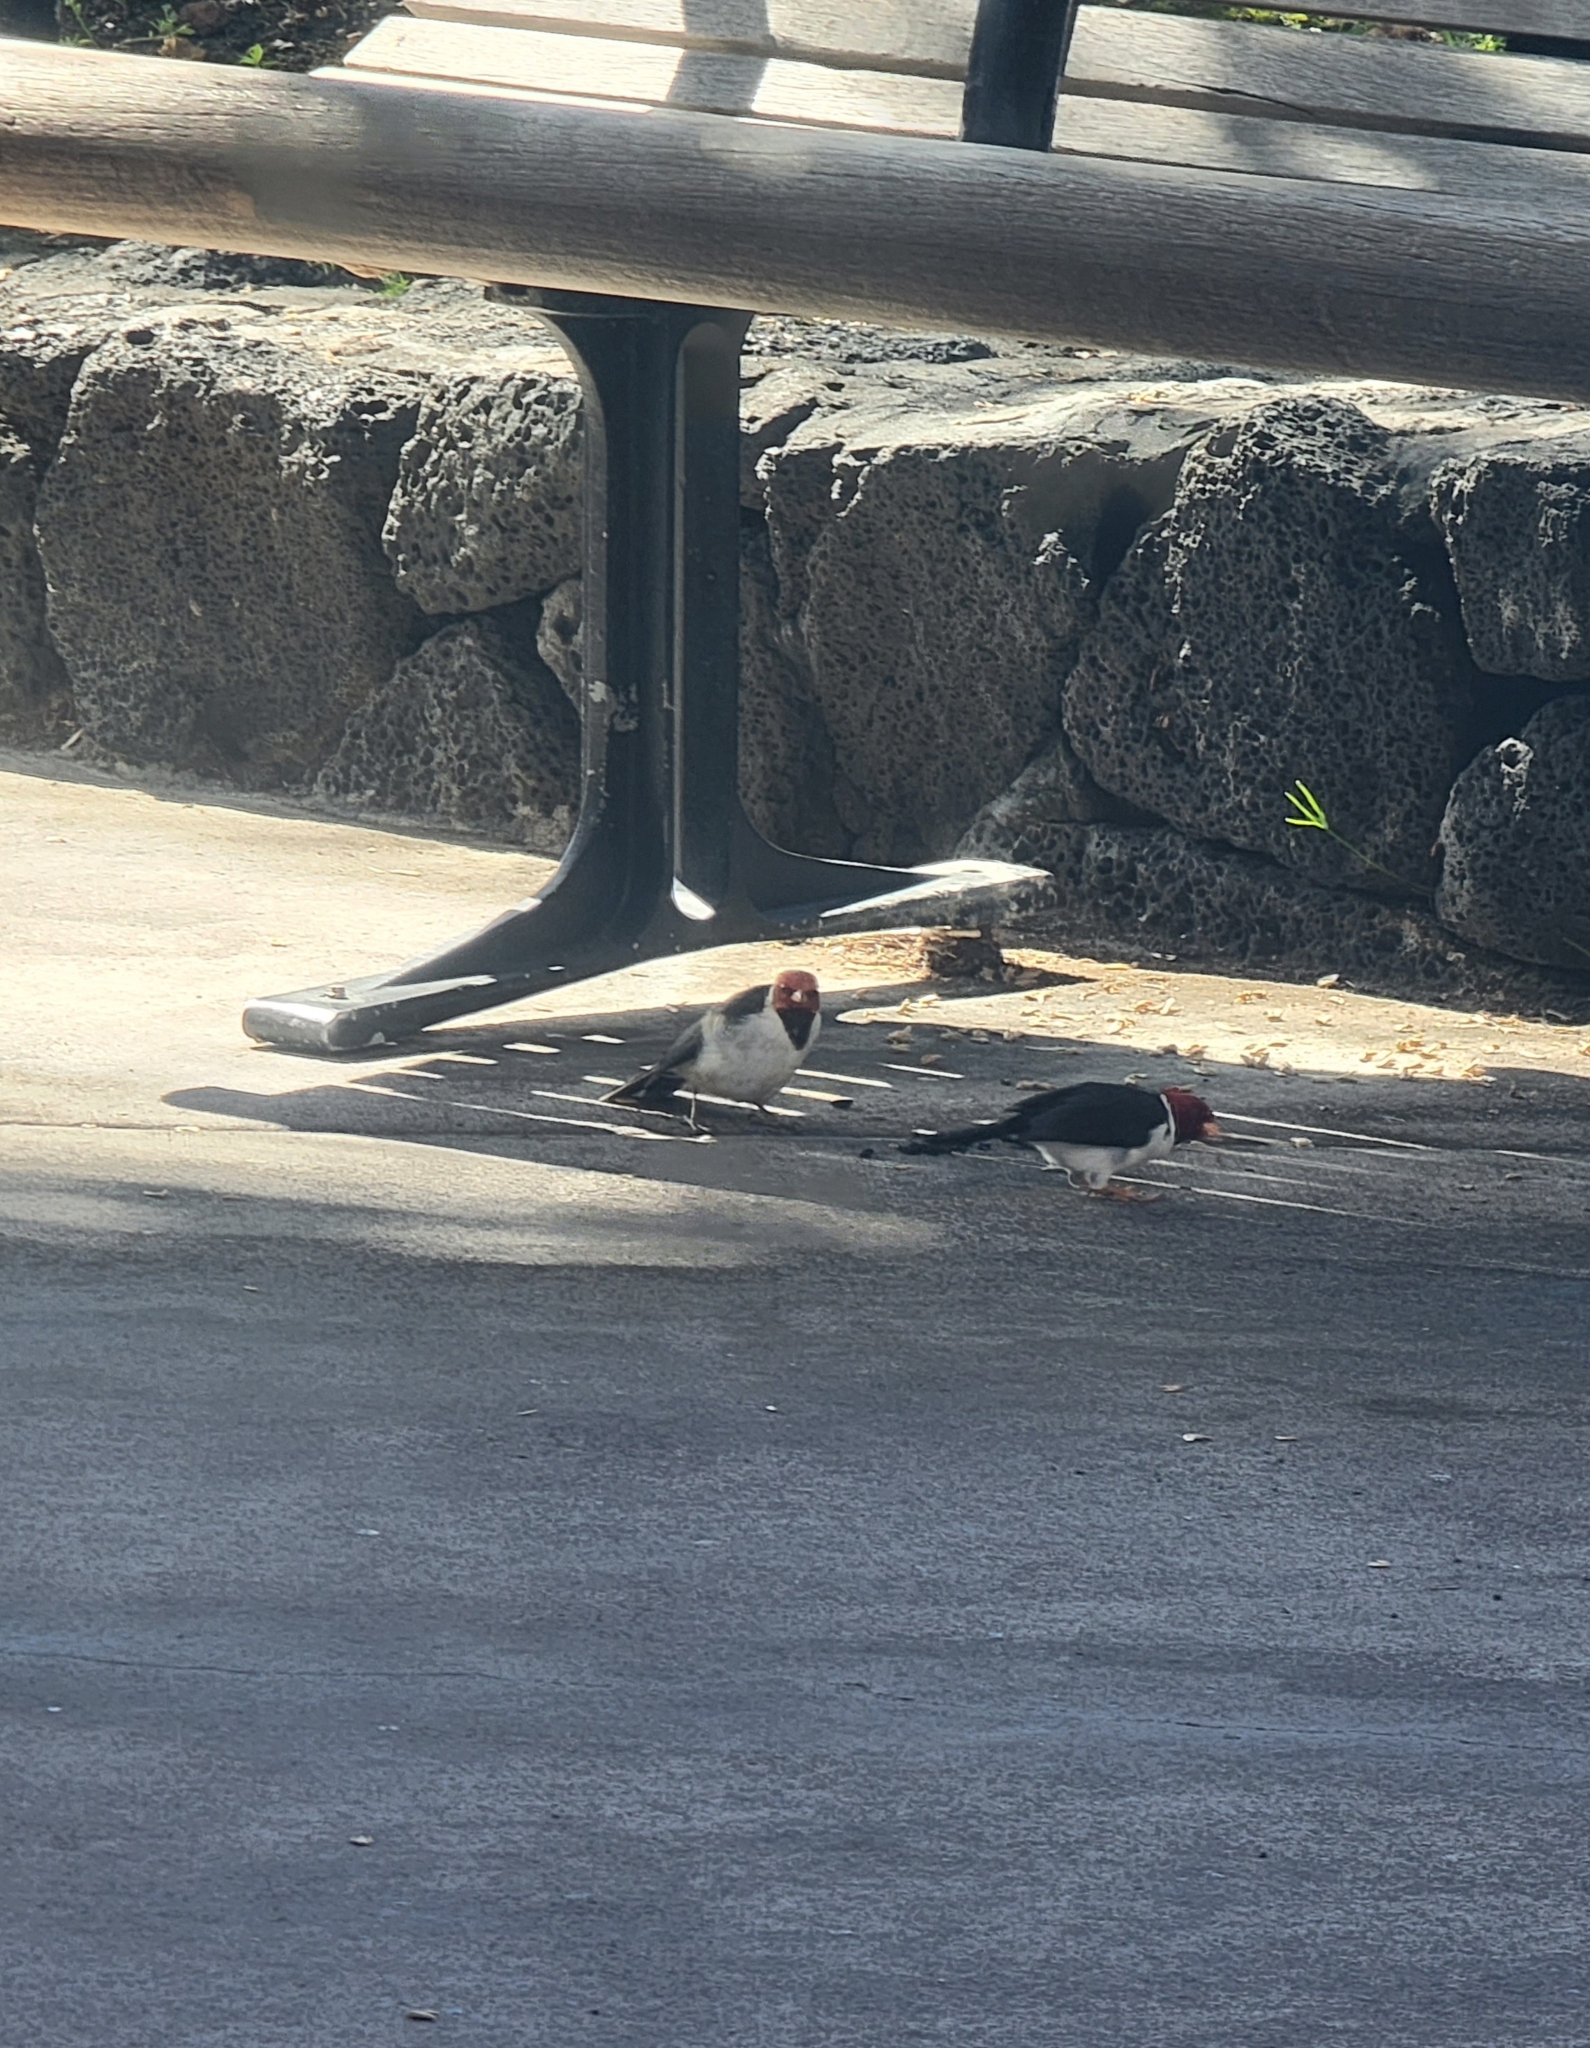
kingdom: Animalia
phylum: Chordata
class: Aves
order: Passeriformes
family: Thraupidae
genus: Paroaria
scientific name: Paroaria capitata
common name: Yellow-billed cardinal
